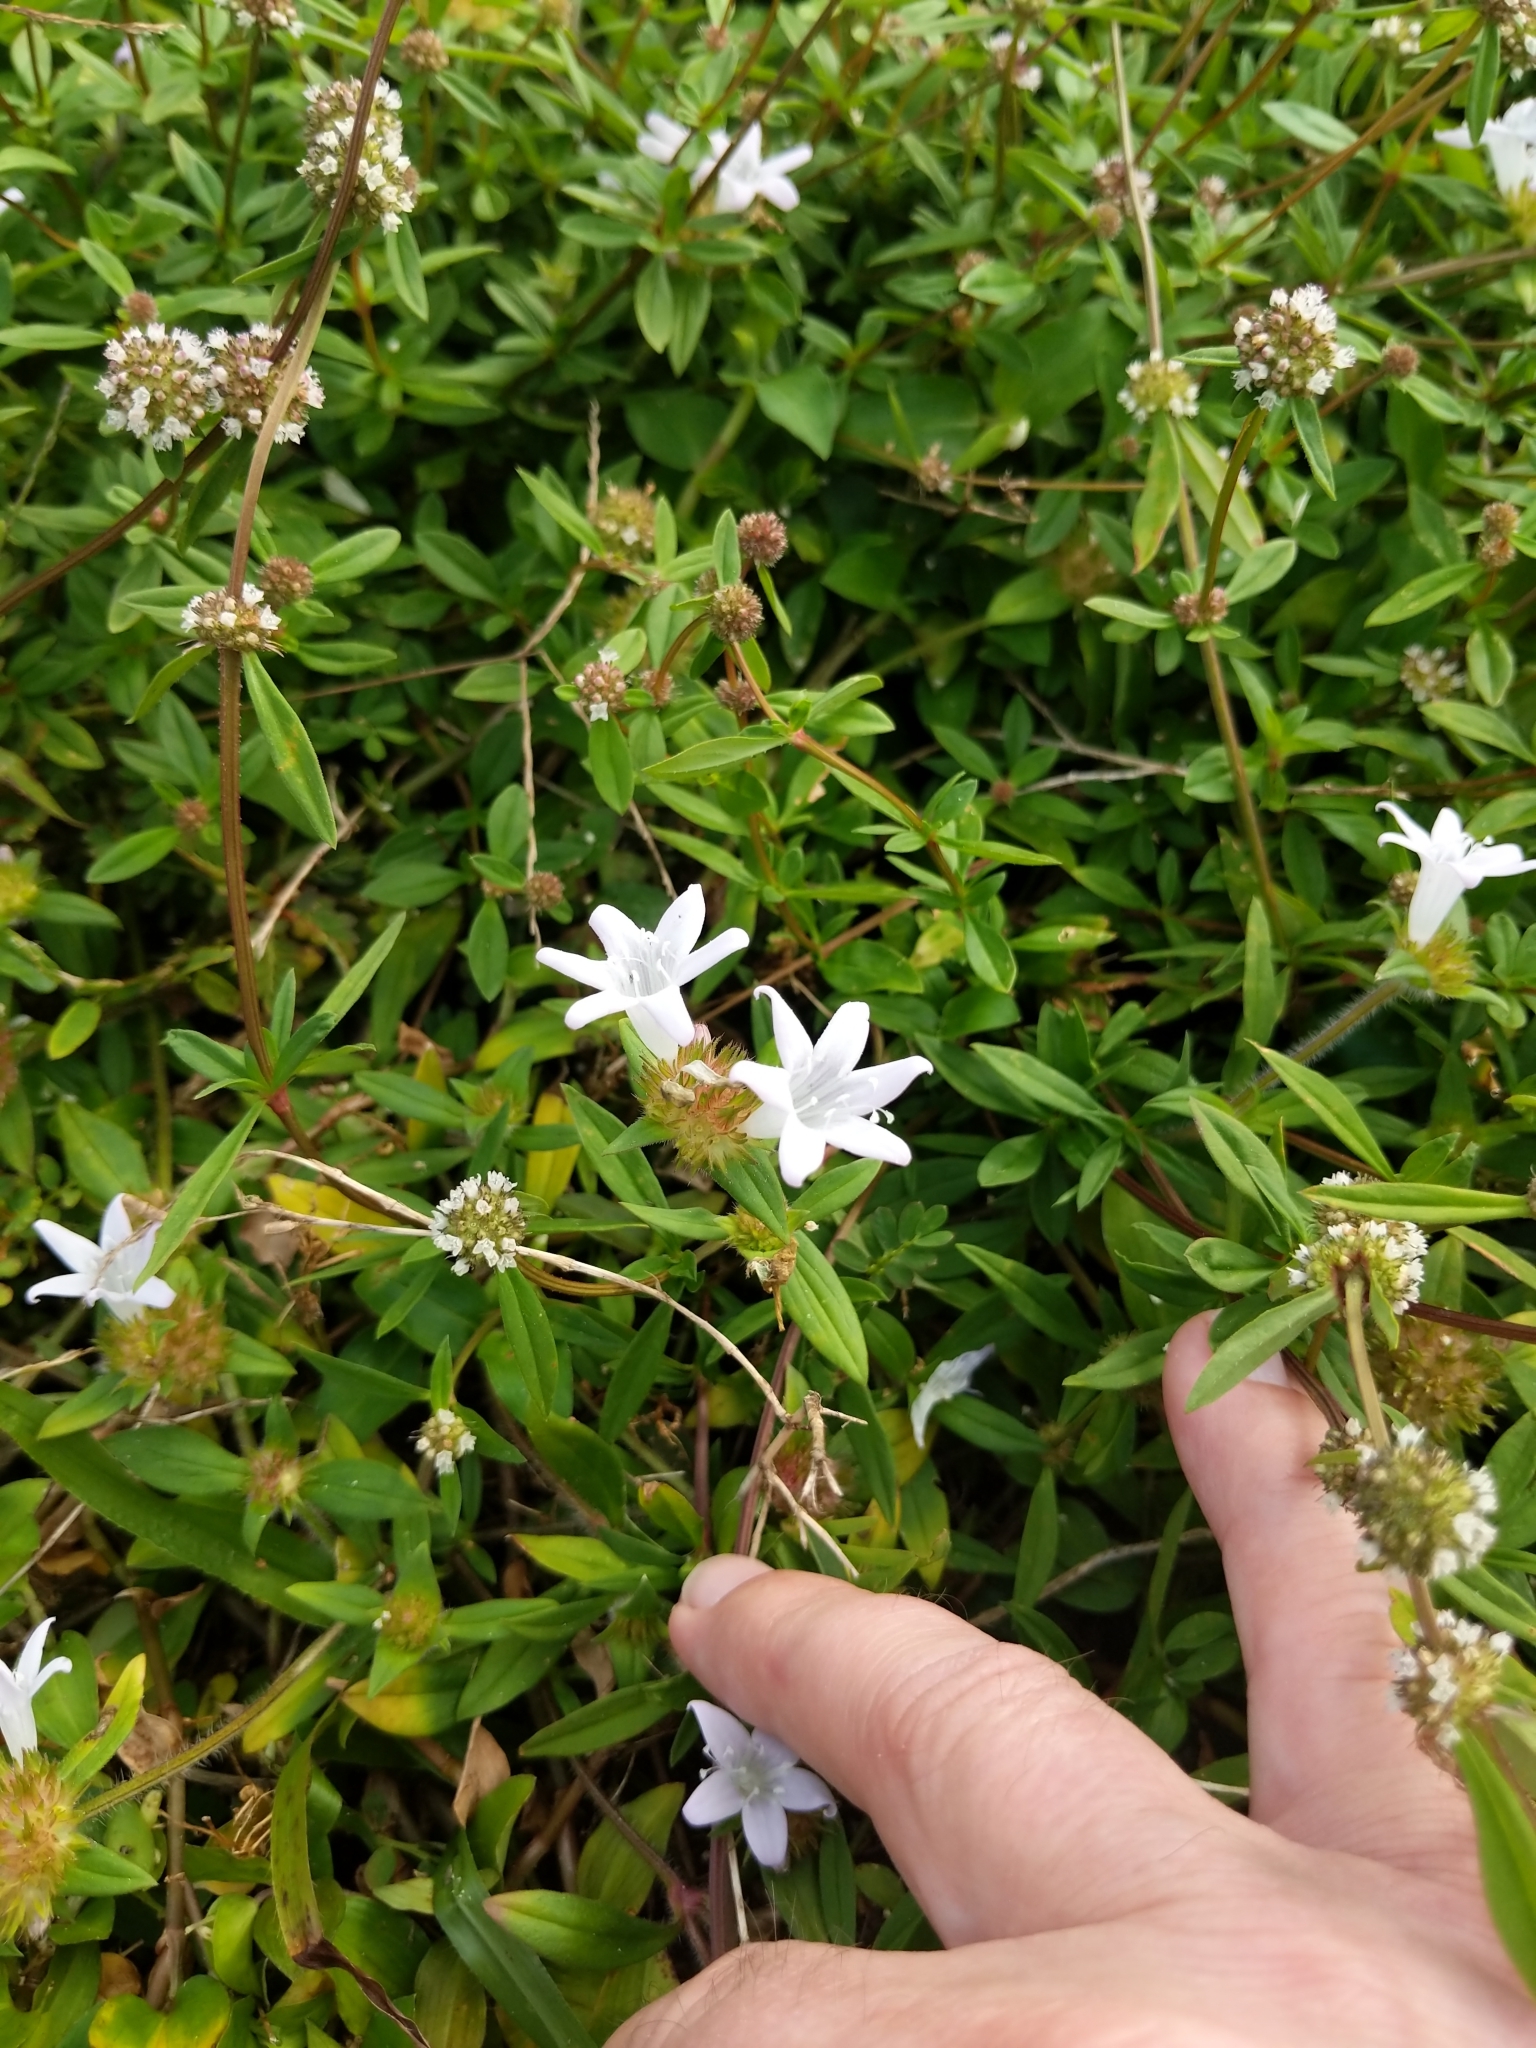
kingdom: Plantae
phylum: Tracheophyta
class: Magnoliopsida
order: Gentianales
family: Rubiaceae
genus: Richardia
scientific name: Richardia grandiflora
